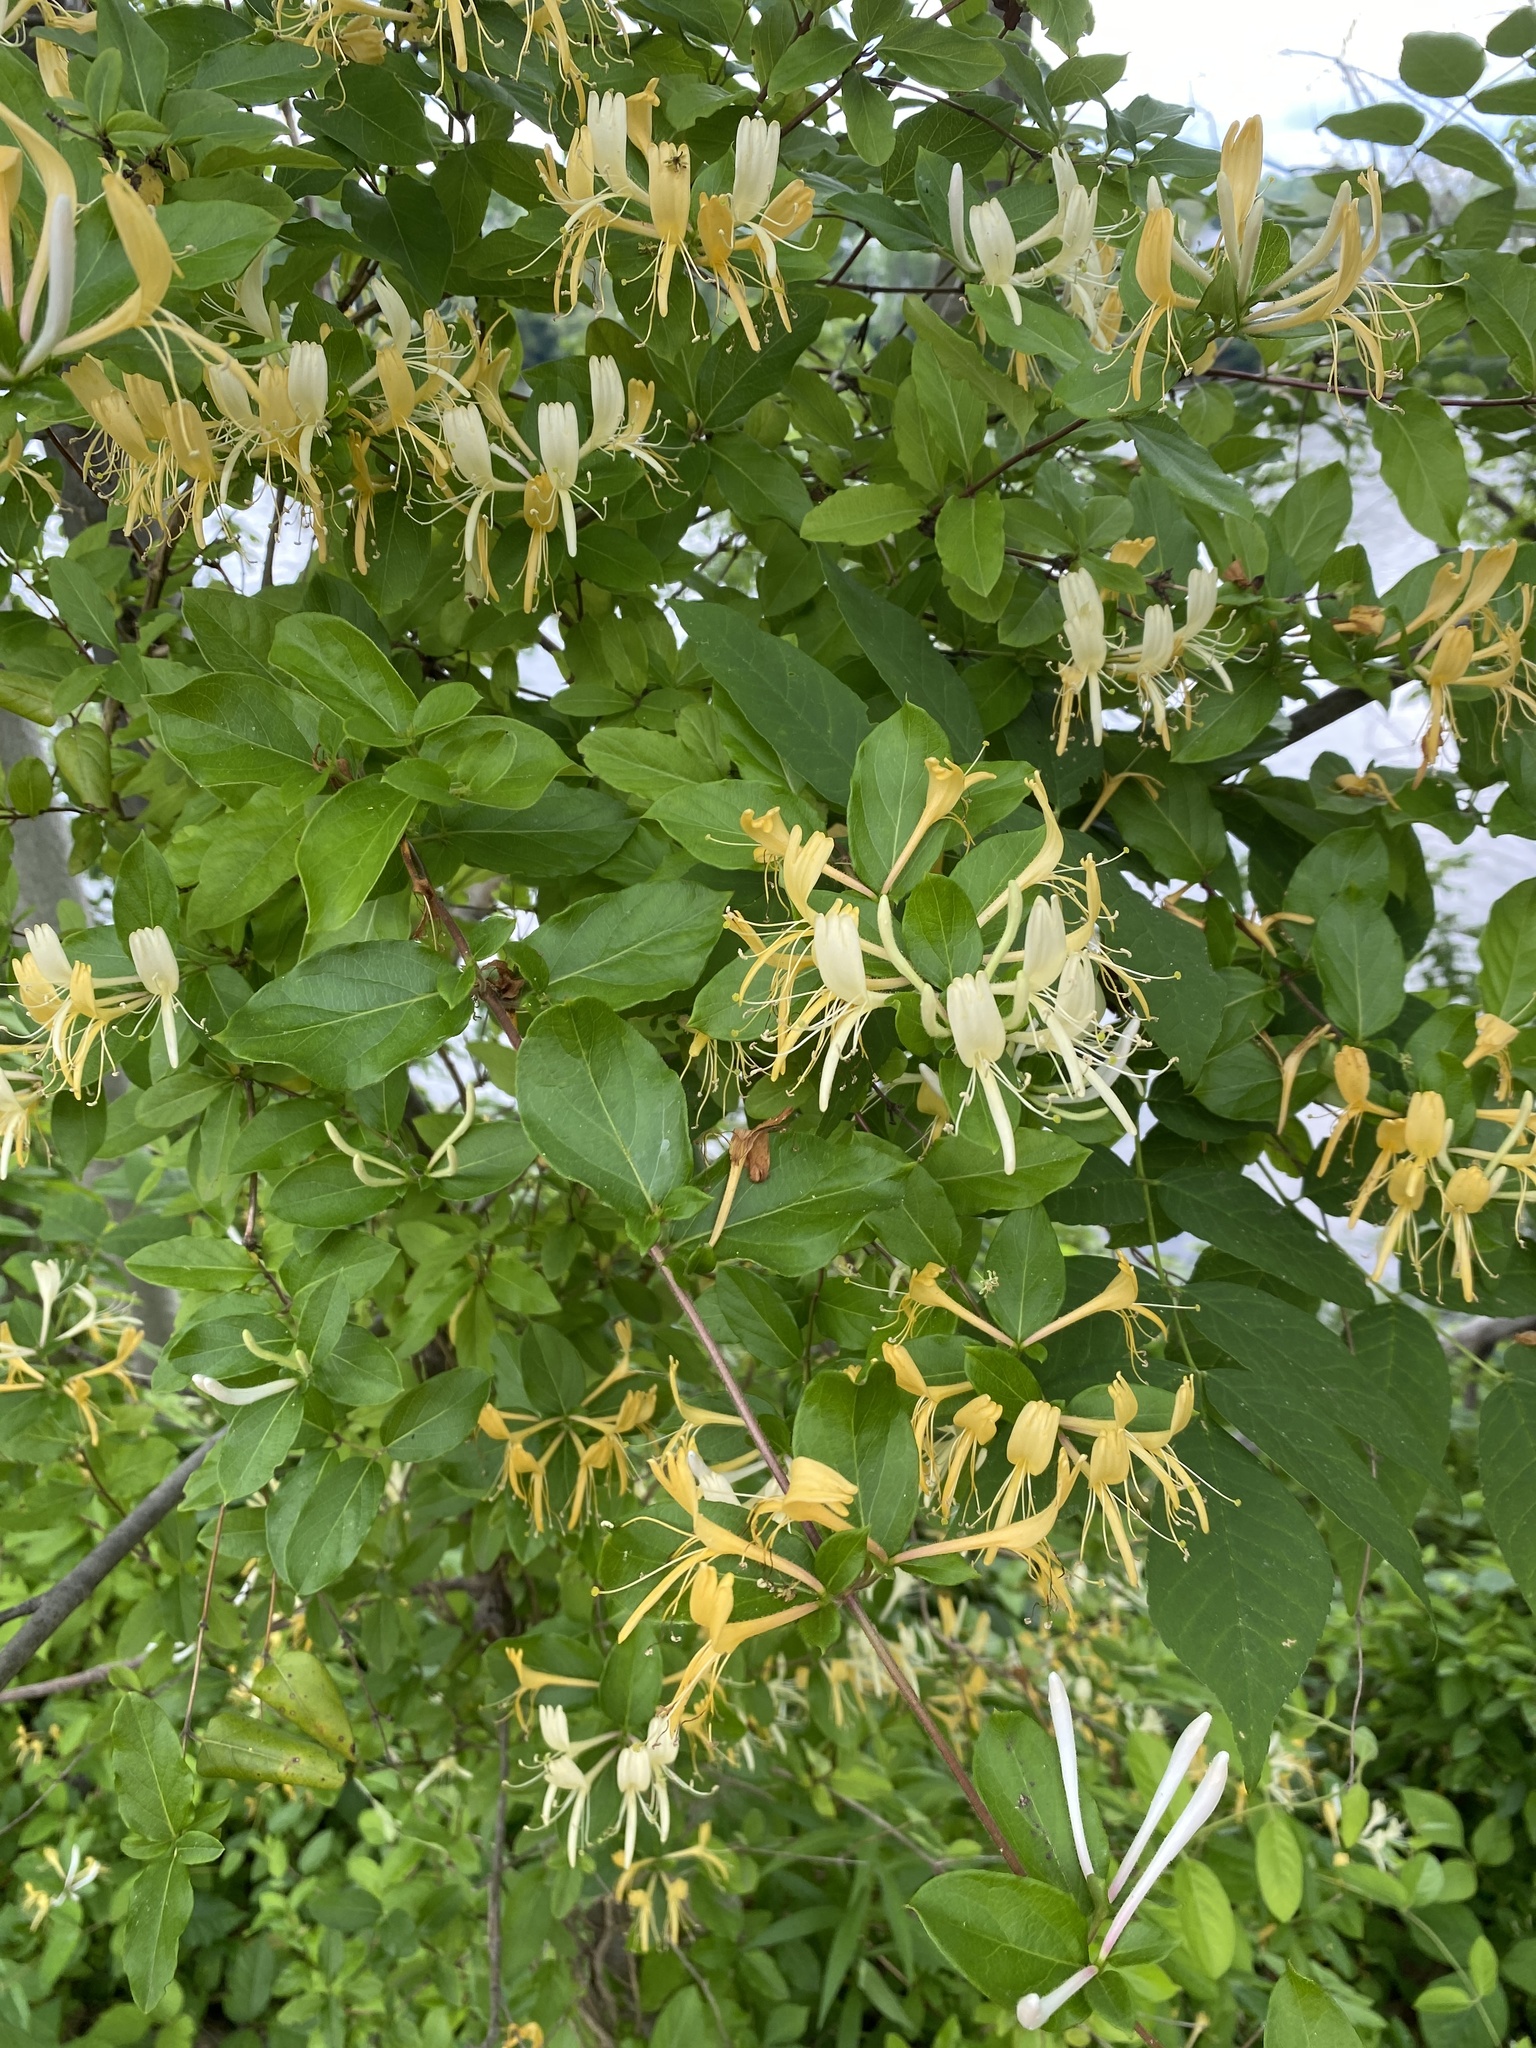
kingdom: Plantae
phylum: Tracheophyta
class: Magnoliopsida
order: Dipsacales
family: Caprifoliaceae
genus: Lonicera
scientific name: Lonicera japonica
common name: Japanese honeysuckle
